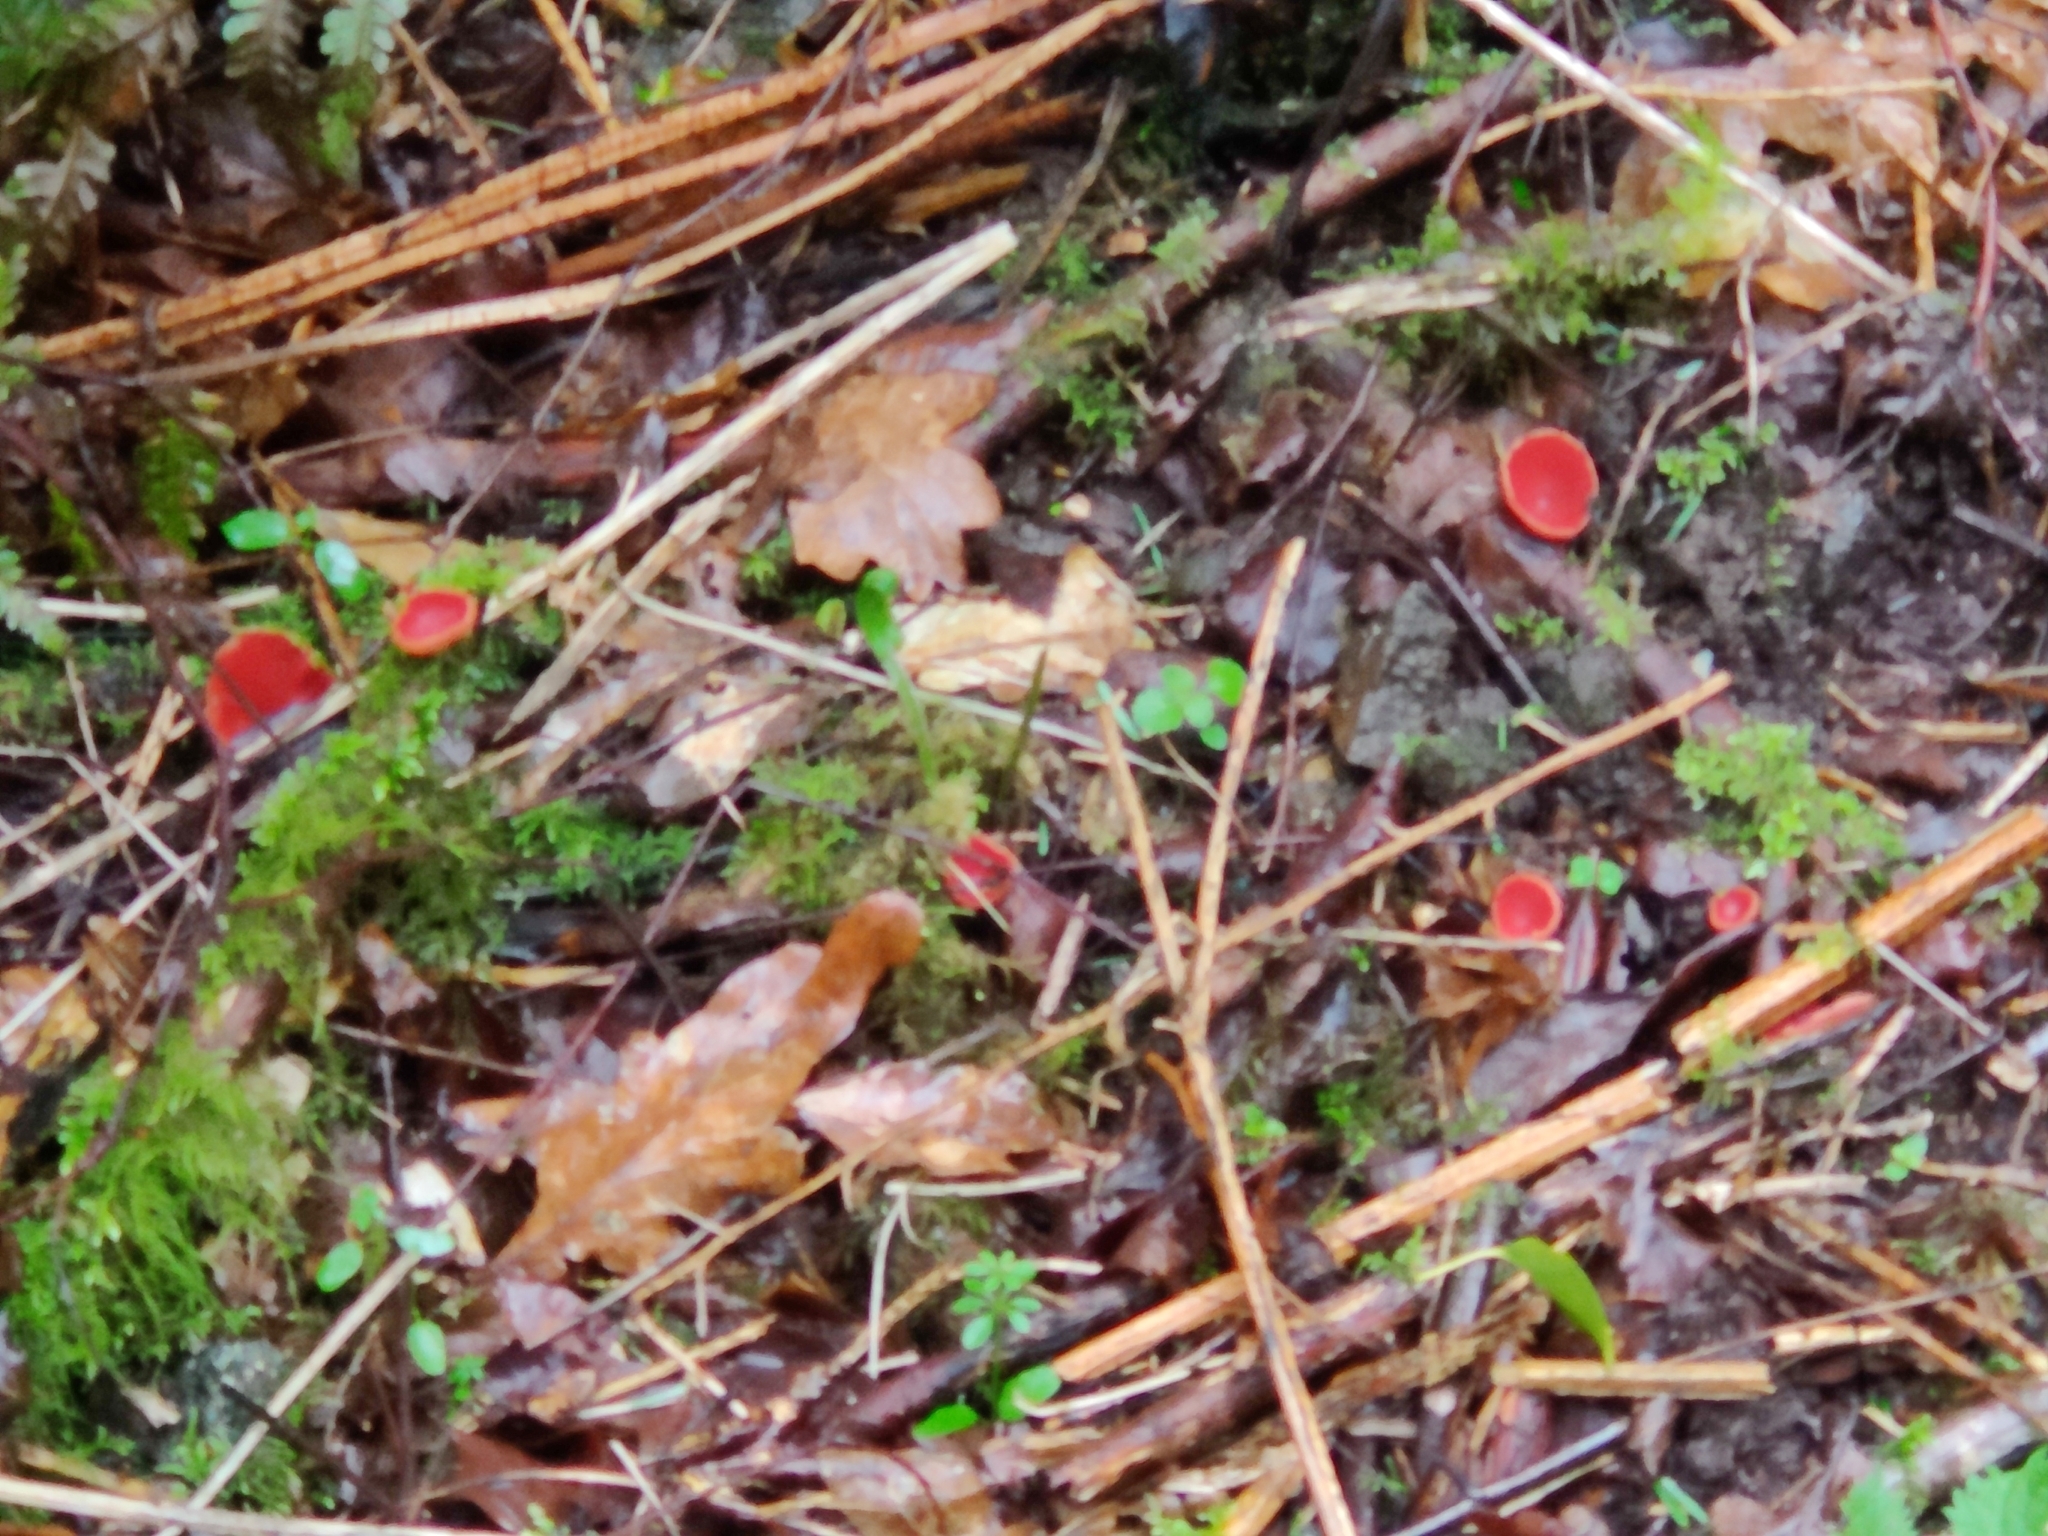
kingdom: Fungi
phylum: Ascomycota
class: Pezizomycetes
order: Pezizales
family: Sarcoscyphaceae
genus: Sarcoscypha
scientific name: Sarcoscypha
